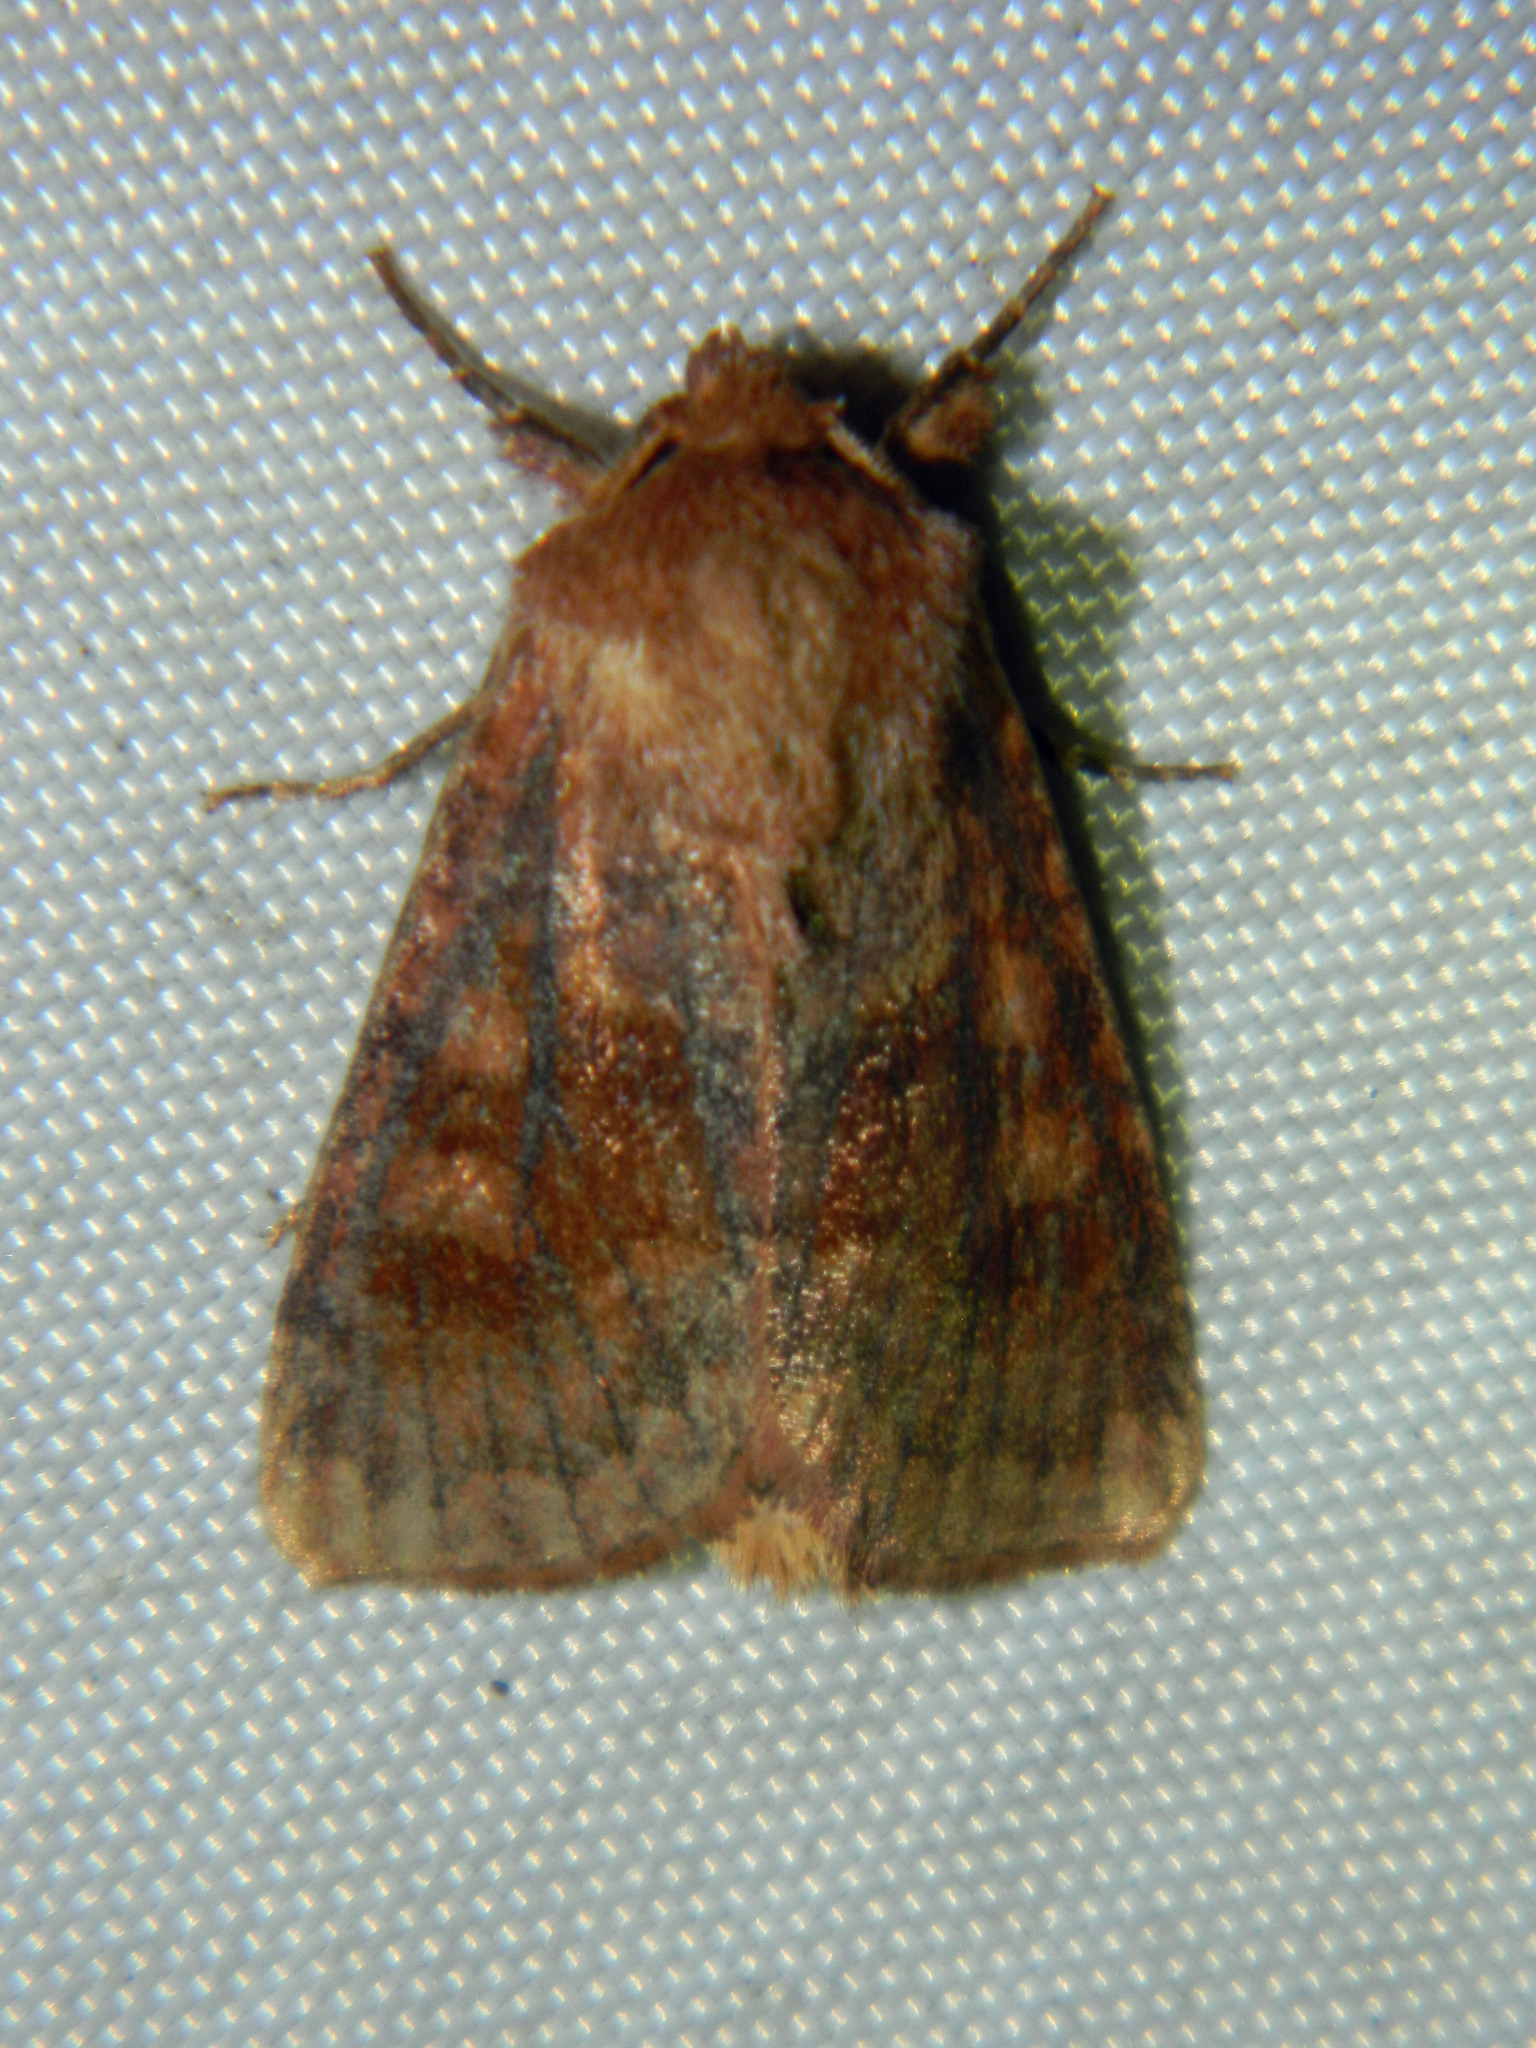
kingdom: Animalia
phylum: Arthropoda
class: Insecta
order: Lepidoptera
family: Noctuidae
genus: Nephelodes
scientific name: Nephelodes minians
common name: Bronzed cutworm
